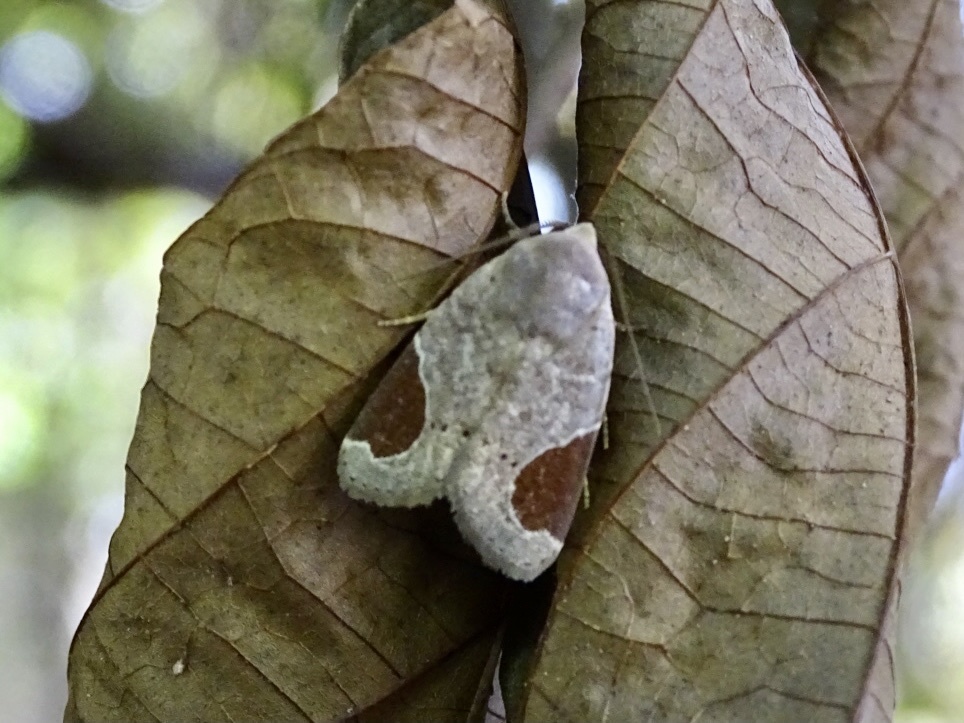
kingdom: Animalia
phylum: Arthropoda
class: Insecta
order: Lepidoptera
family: Noctuidae
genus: Dyrzela
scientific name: Dyrzela plagiata
